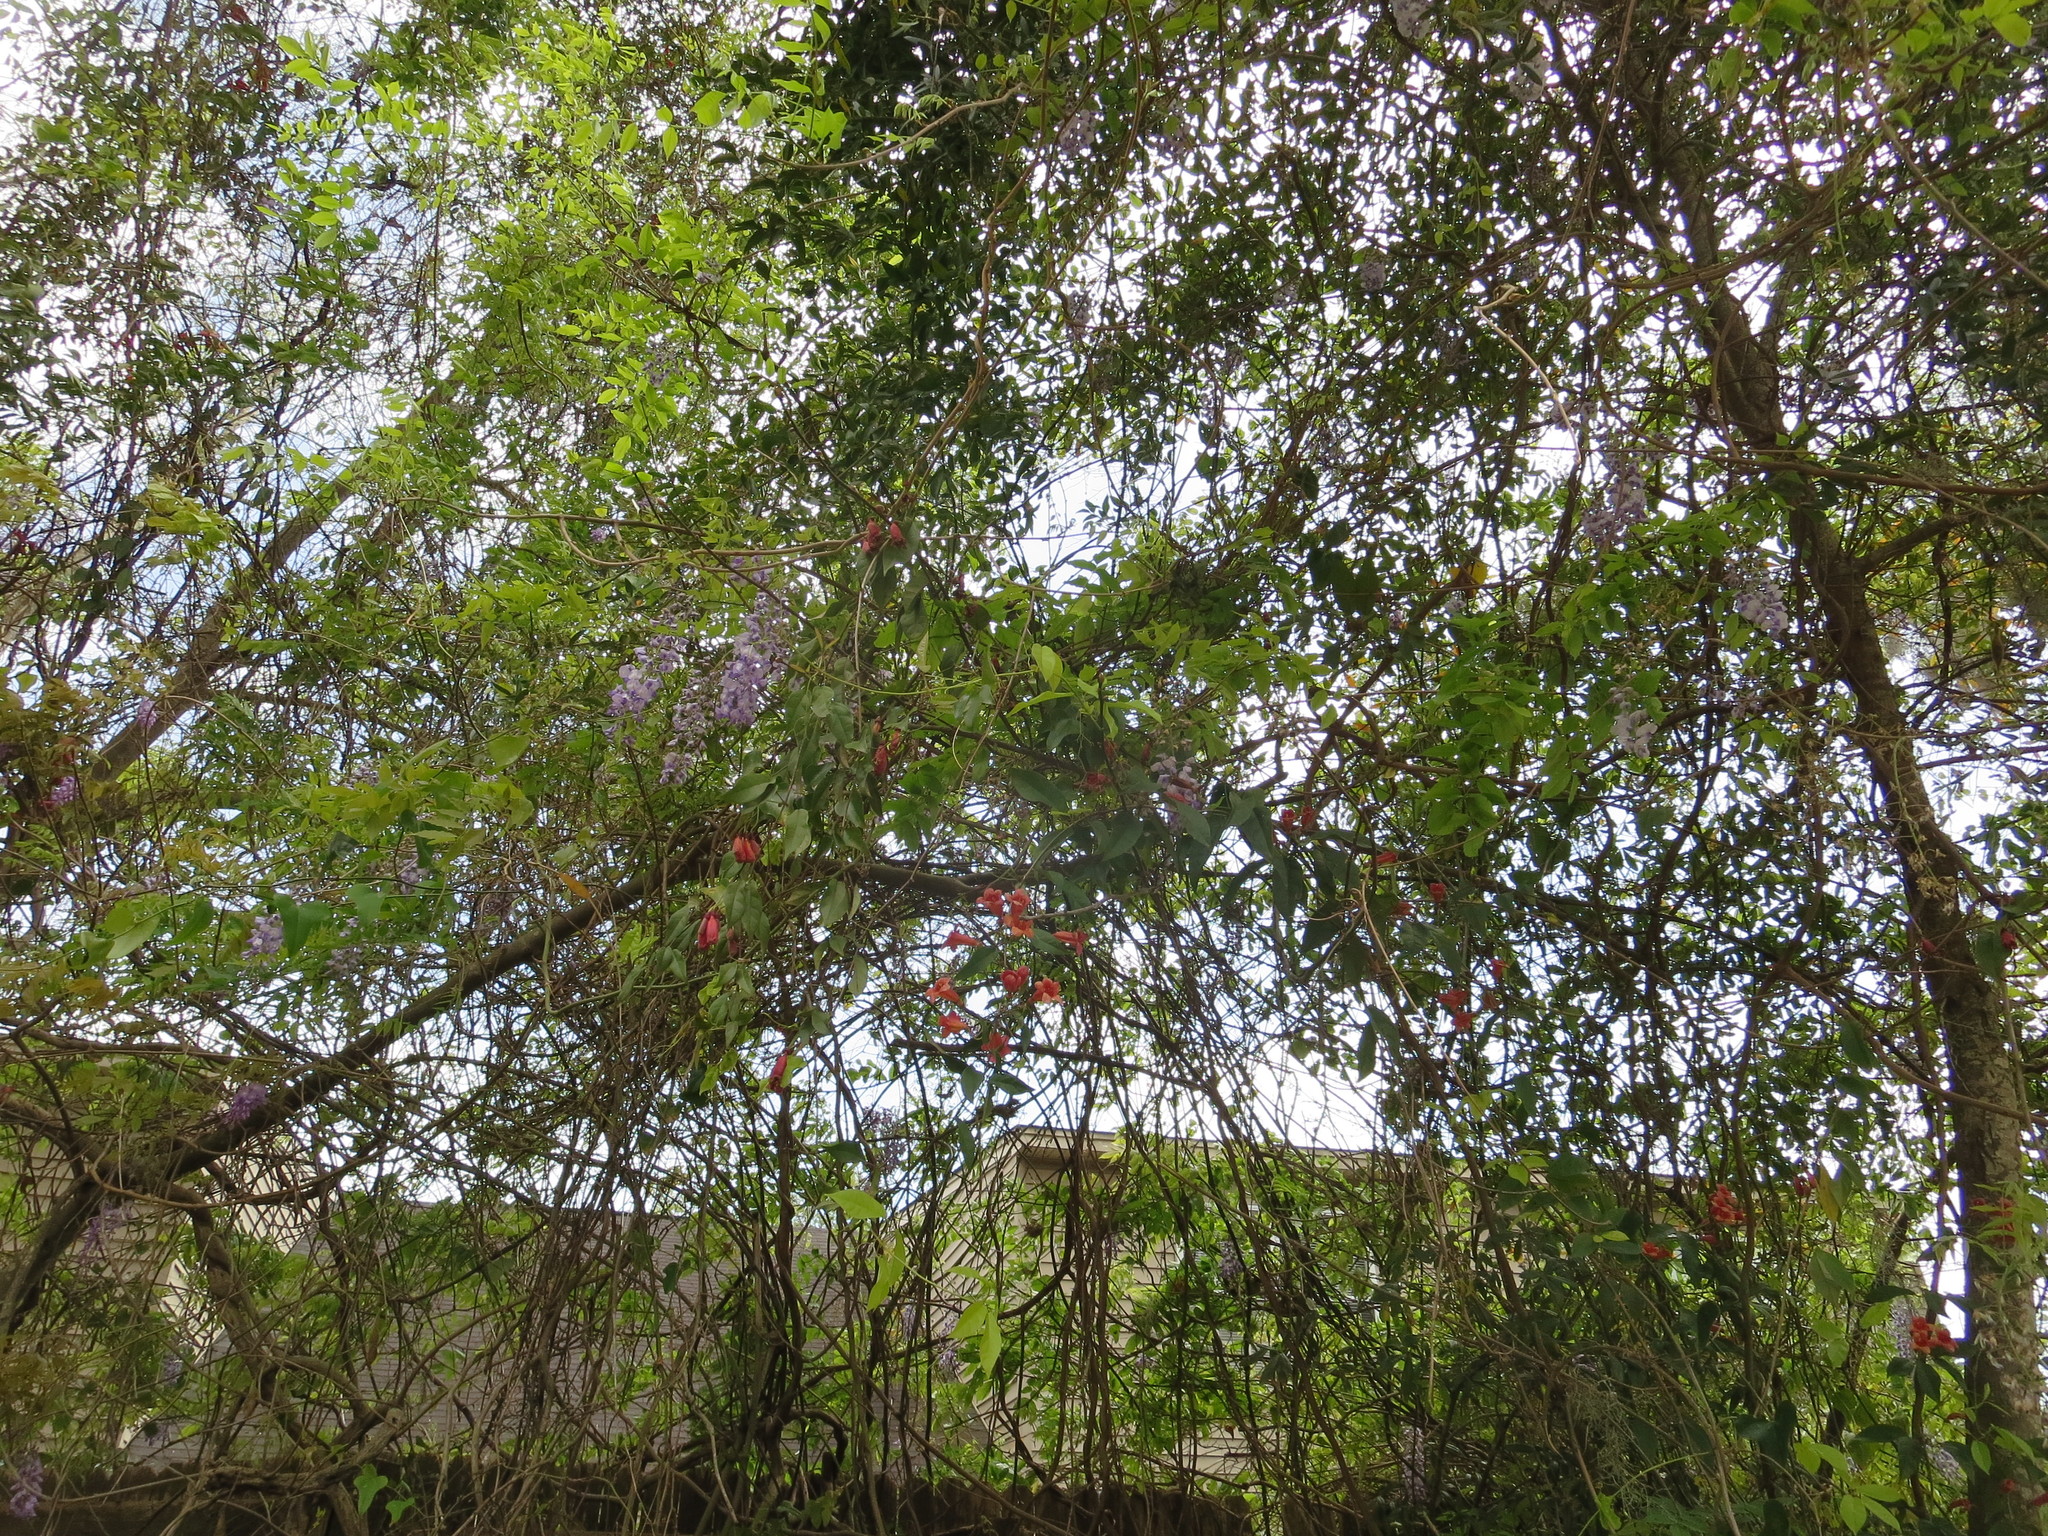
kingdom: Plantae
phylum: Tracheophyta
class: Magnoliopsida
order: Lamiales
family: Bignoniaceae
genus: Bignonia
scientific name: Bignonia capreolata
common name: Crossvine
